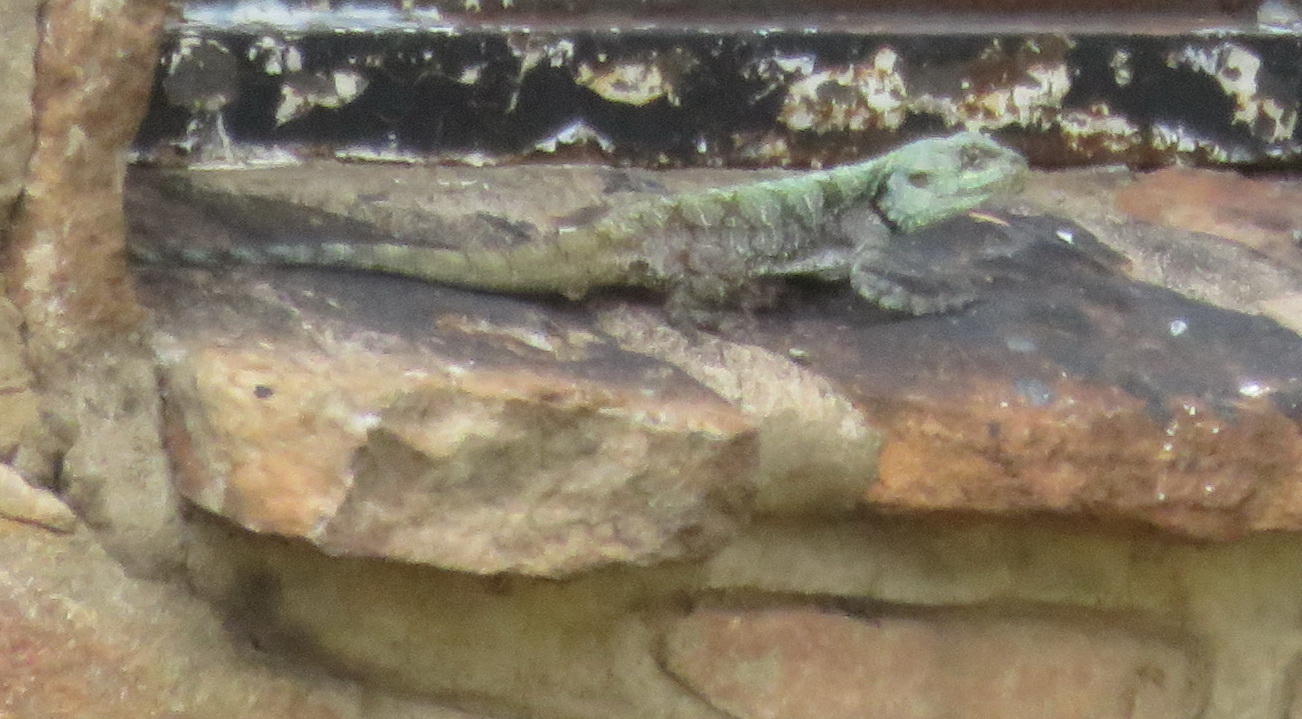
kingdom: Animalia
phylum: Chordata
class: Squamata
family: Agamidae
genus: Acanthocercus
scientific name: Acanthocercus atricollis
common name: Southern tree agama
